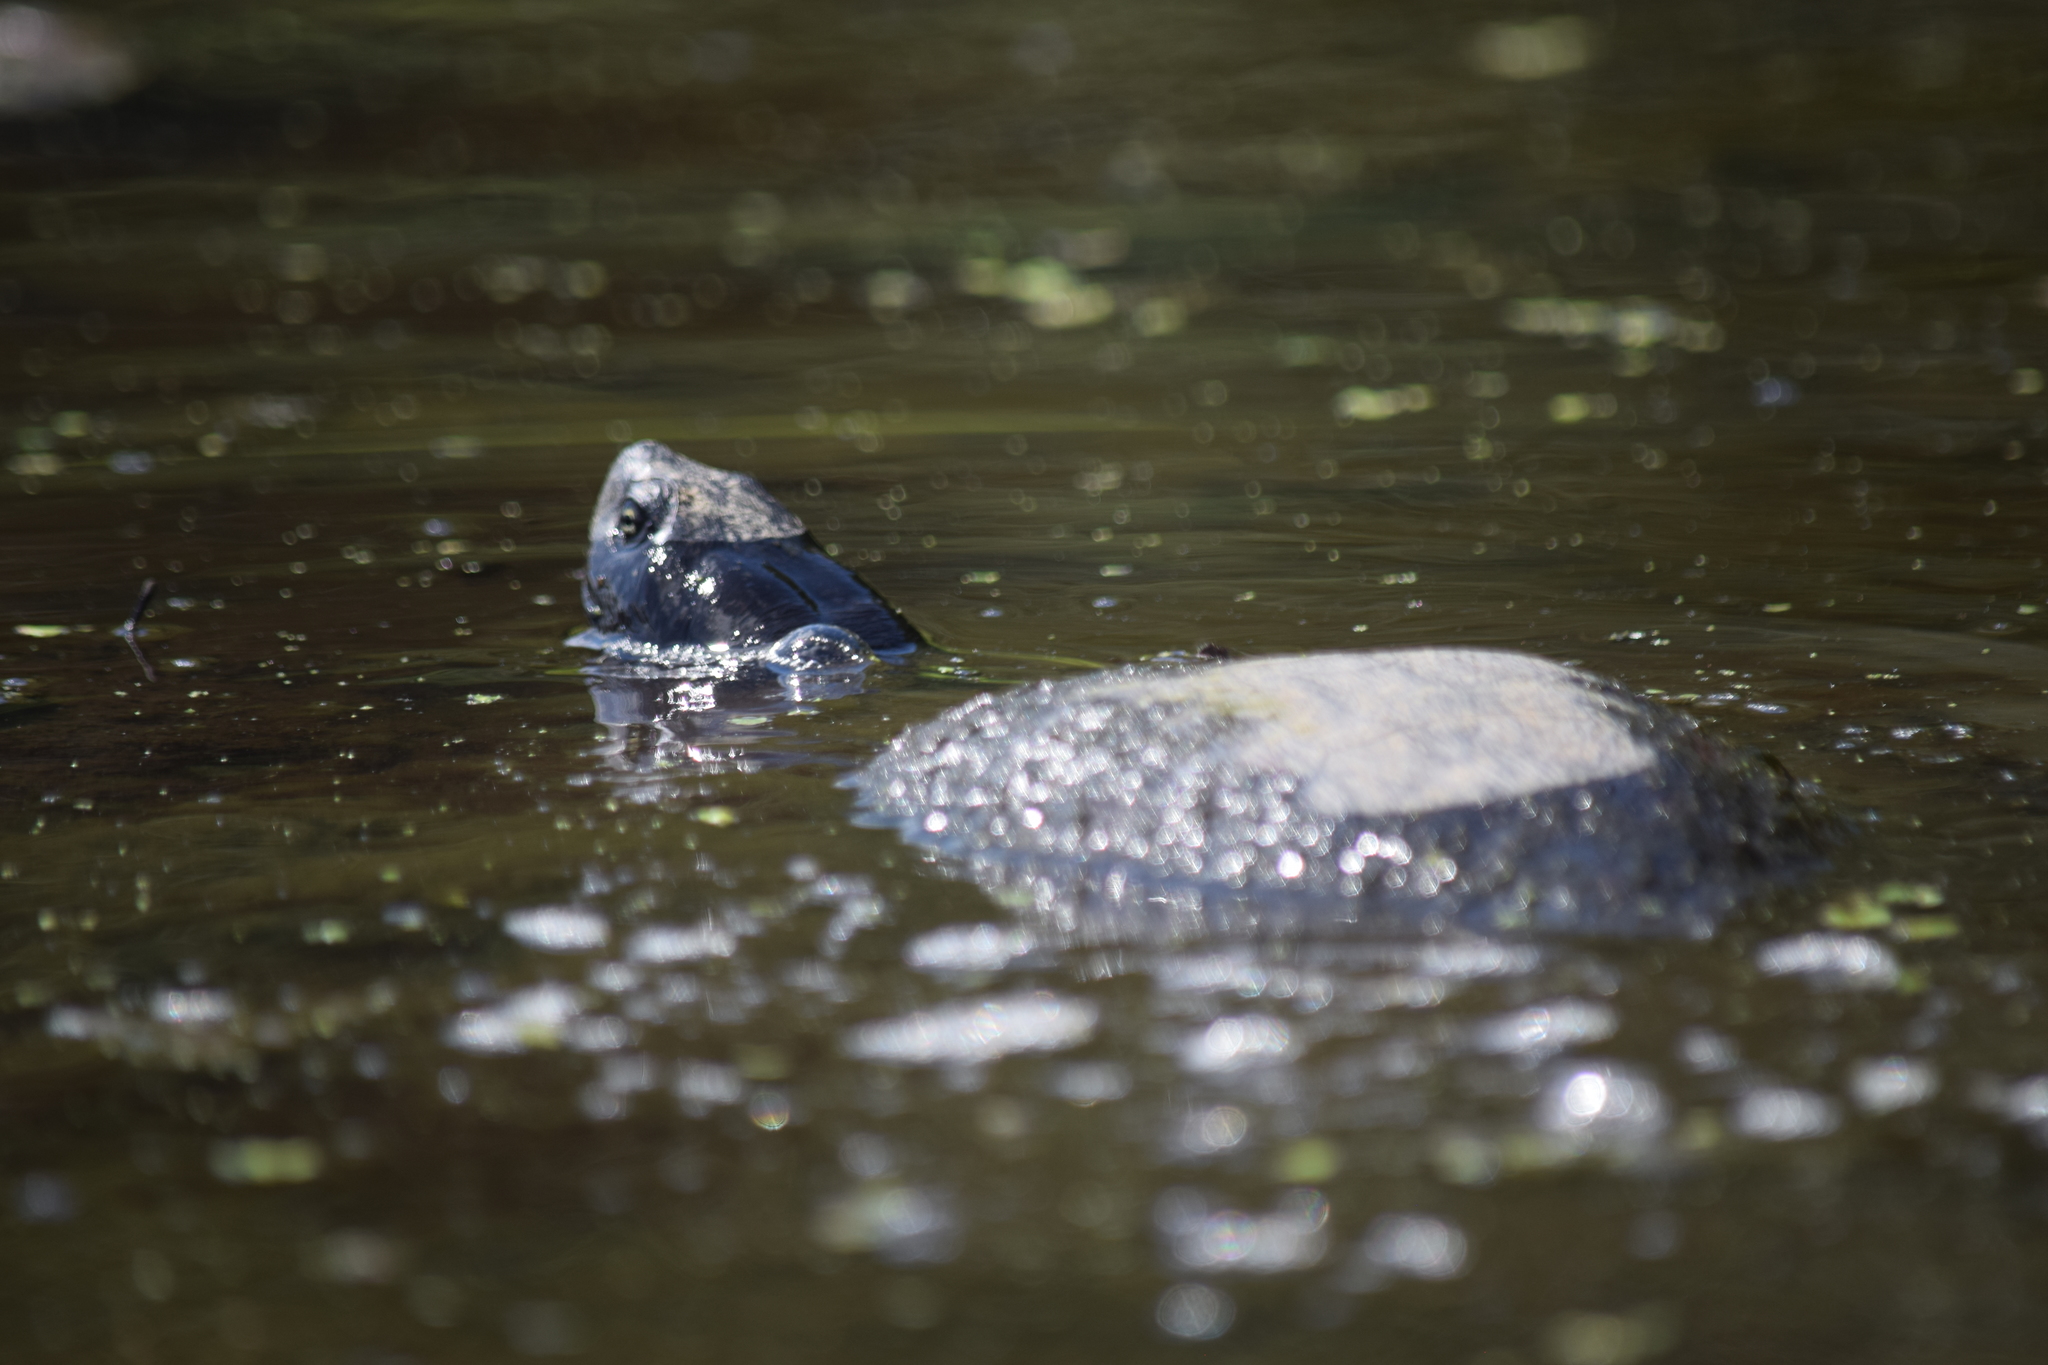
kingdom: Animalia
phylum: Chordata
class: Testudines
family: Emydidae
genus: Pseudemys
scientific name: Pseudemys rubriventris
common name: American red-bellied turtle
